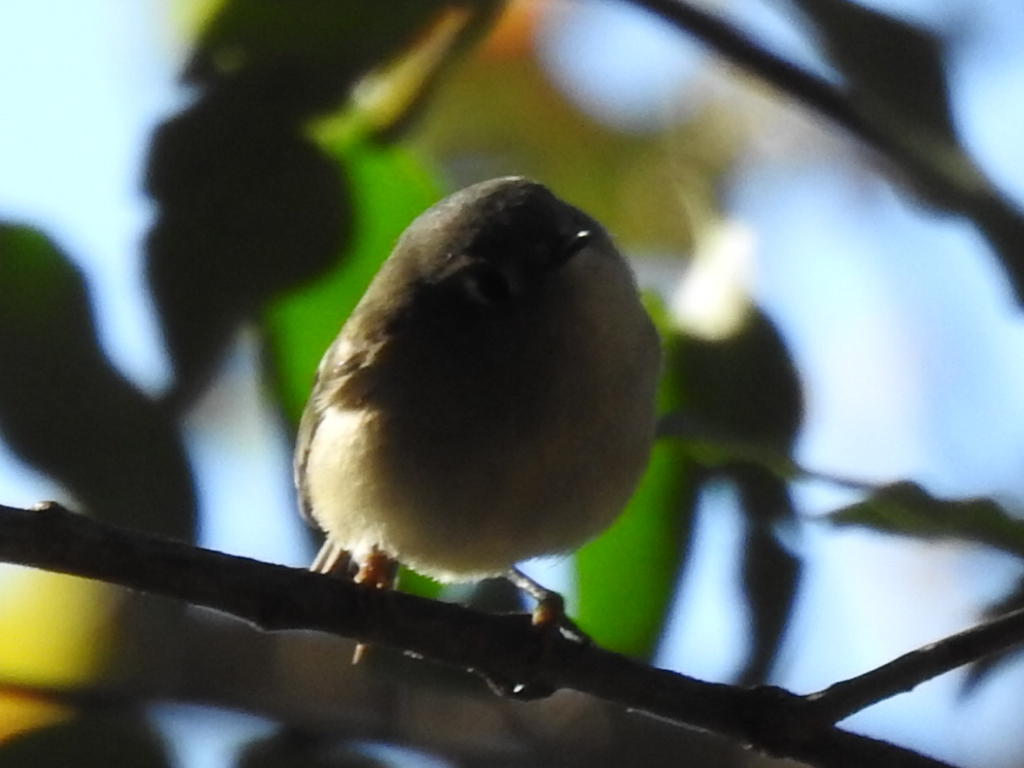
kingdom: Animalia
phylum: Chordata
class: Aves
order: Passeriformes
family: Regulidae
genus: Regulus
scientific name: Regulus calendula
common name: Ruby-crowned kinglet
